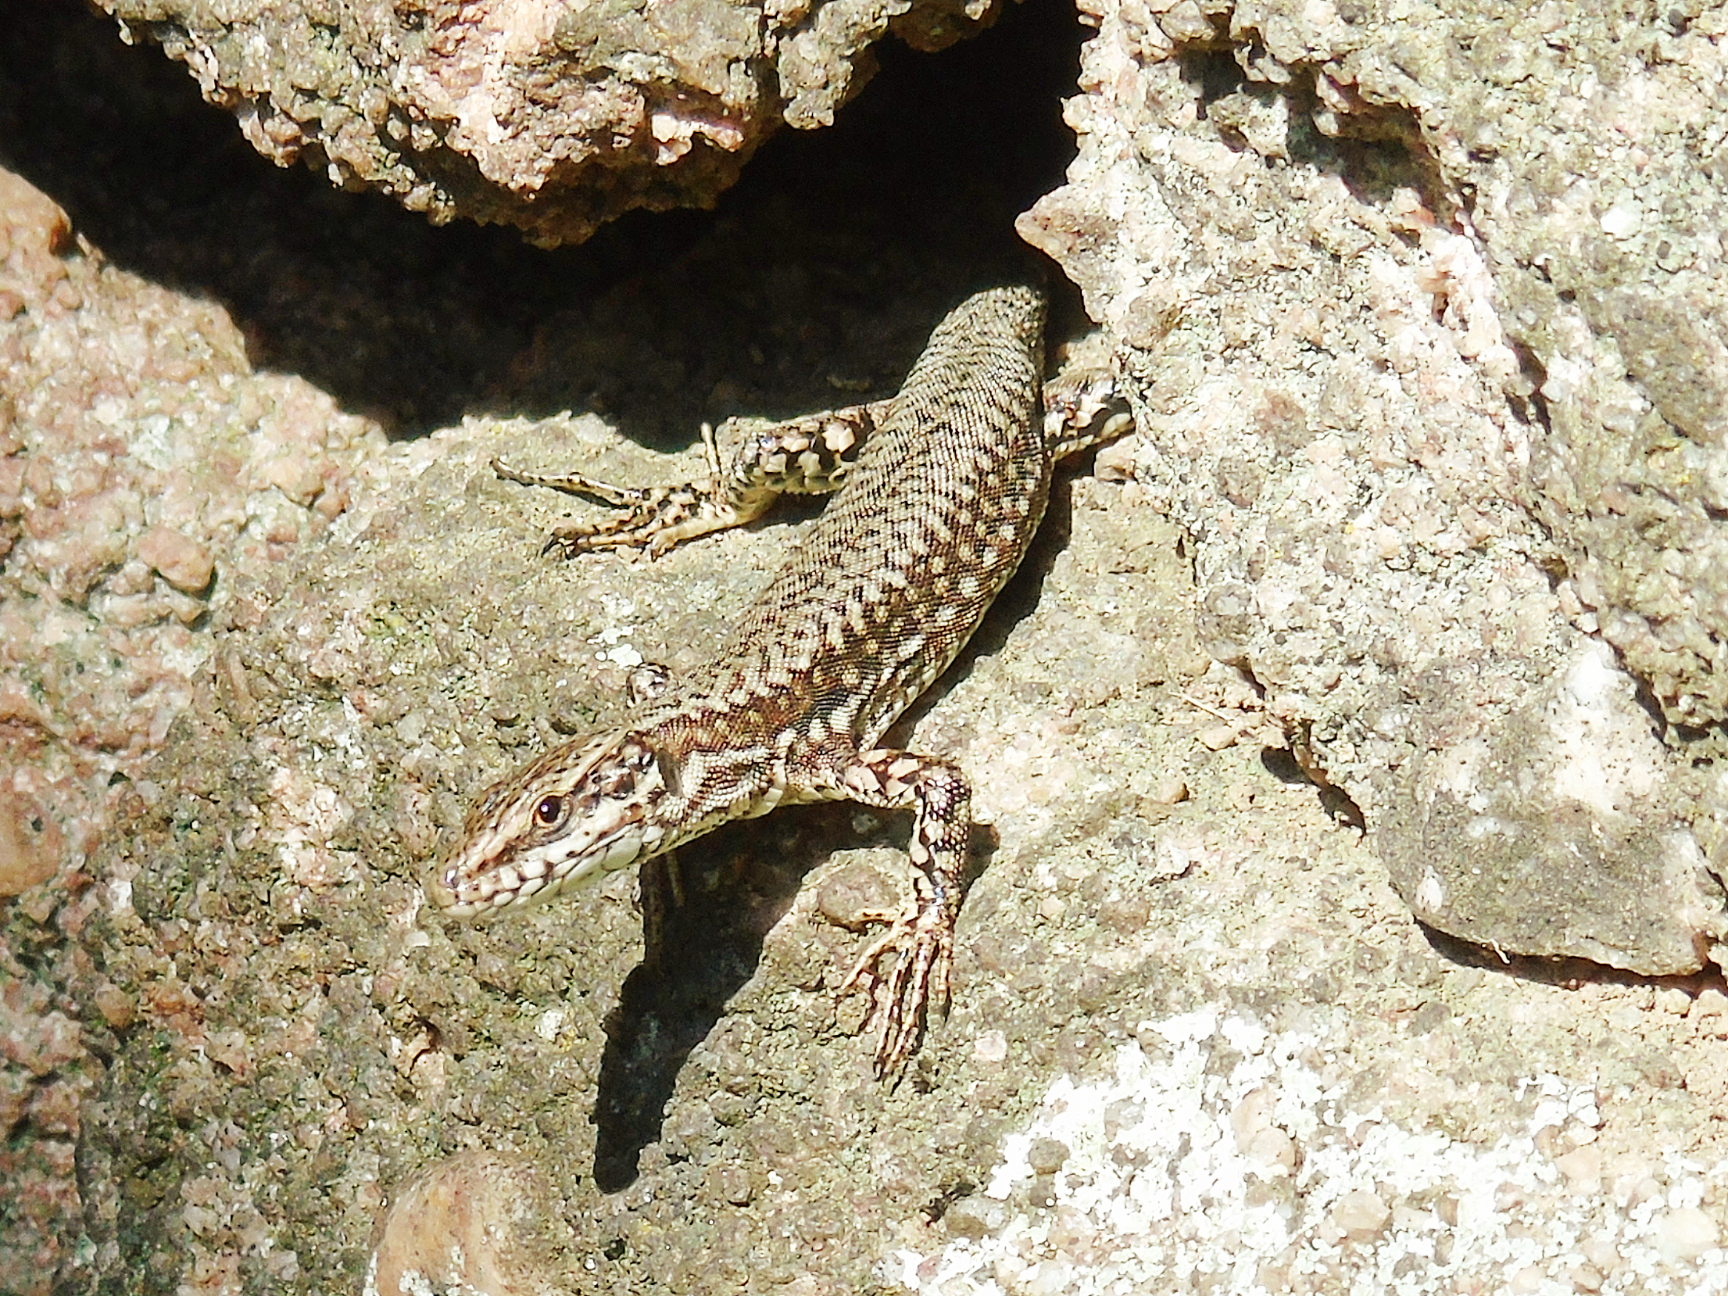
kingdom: Animalia
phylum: Chordata
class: Squamata
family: Lacertidae
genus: Podarcis
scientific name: Podarcis muralis
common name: Common wall lizard
